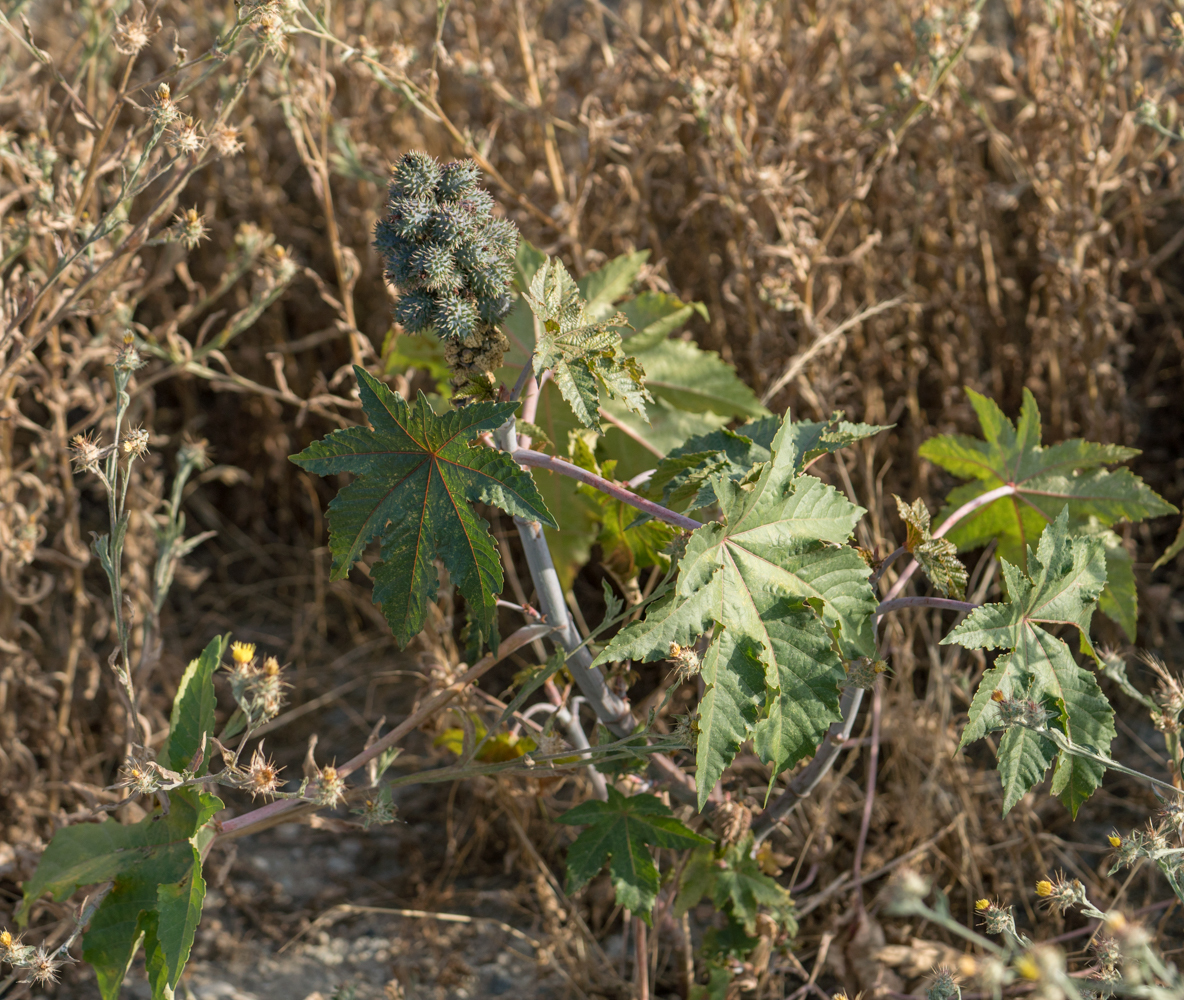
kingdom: Plantae
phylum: Tracheophyta
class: Magnoliopsida
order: Malpighiales
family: Euphorbiaceae
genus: Ricinus
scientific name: Ricinus communis
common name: Castor-oil-plant
